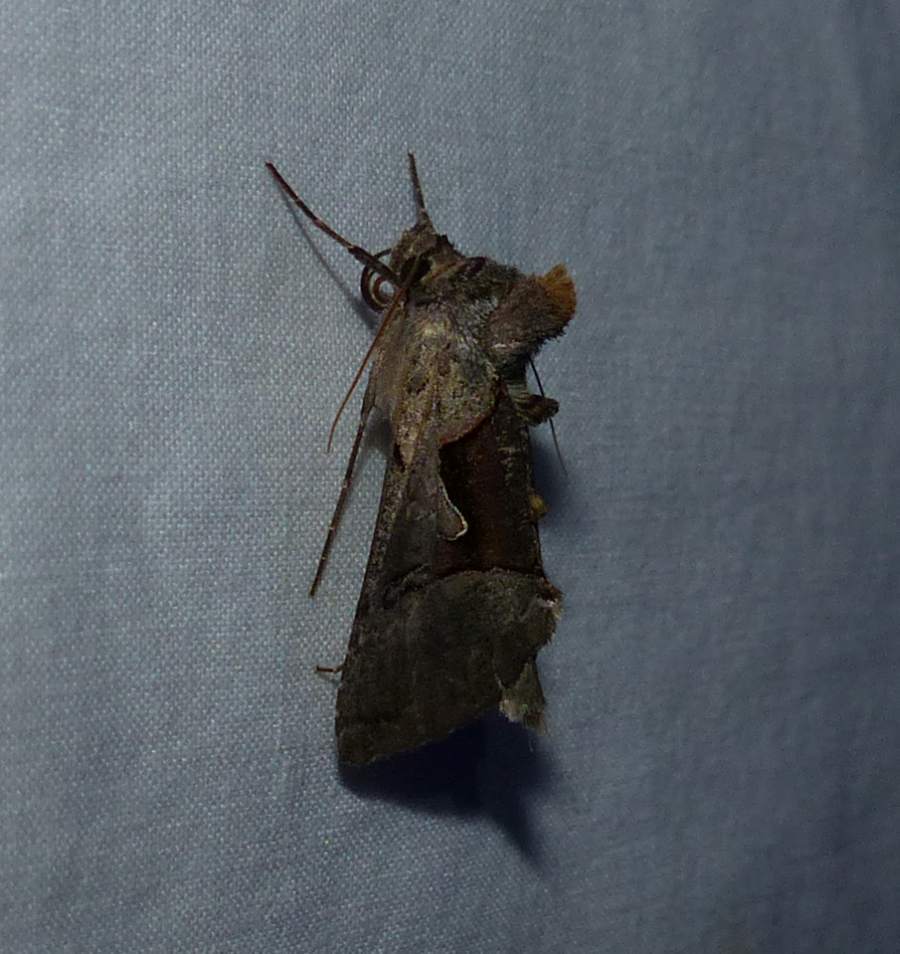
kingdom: Animalia
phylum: Arthropoda
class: Insecta
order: Lepidoptera
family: Noctuidae
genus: Autographa
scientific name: Autographa ampla
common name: Large looper moth
